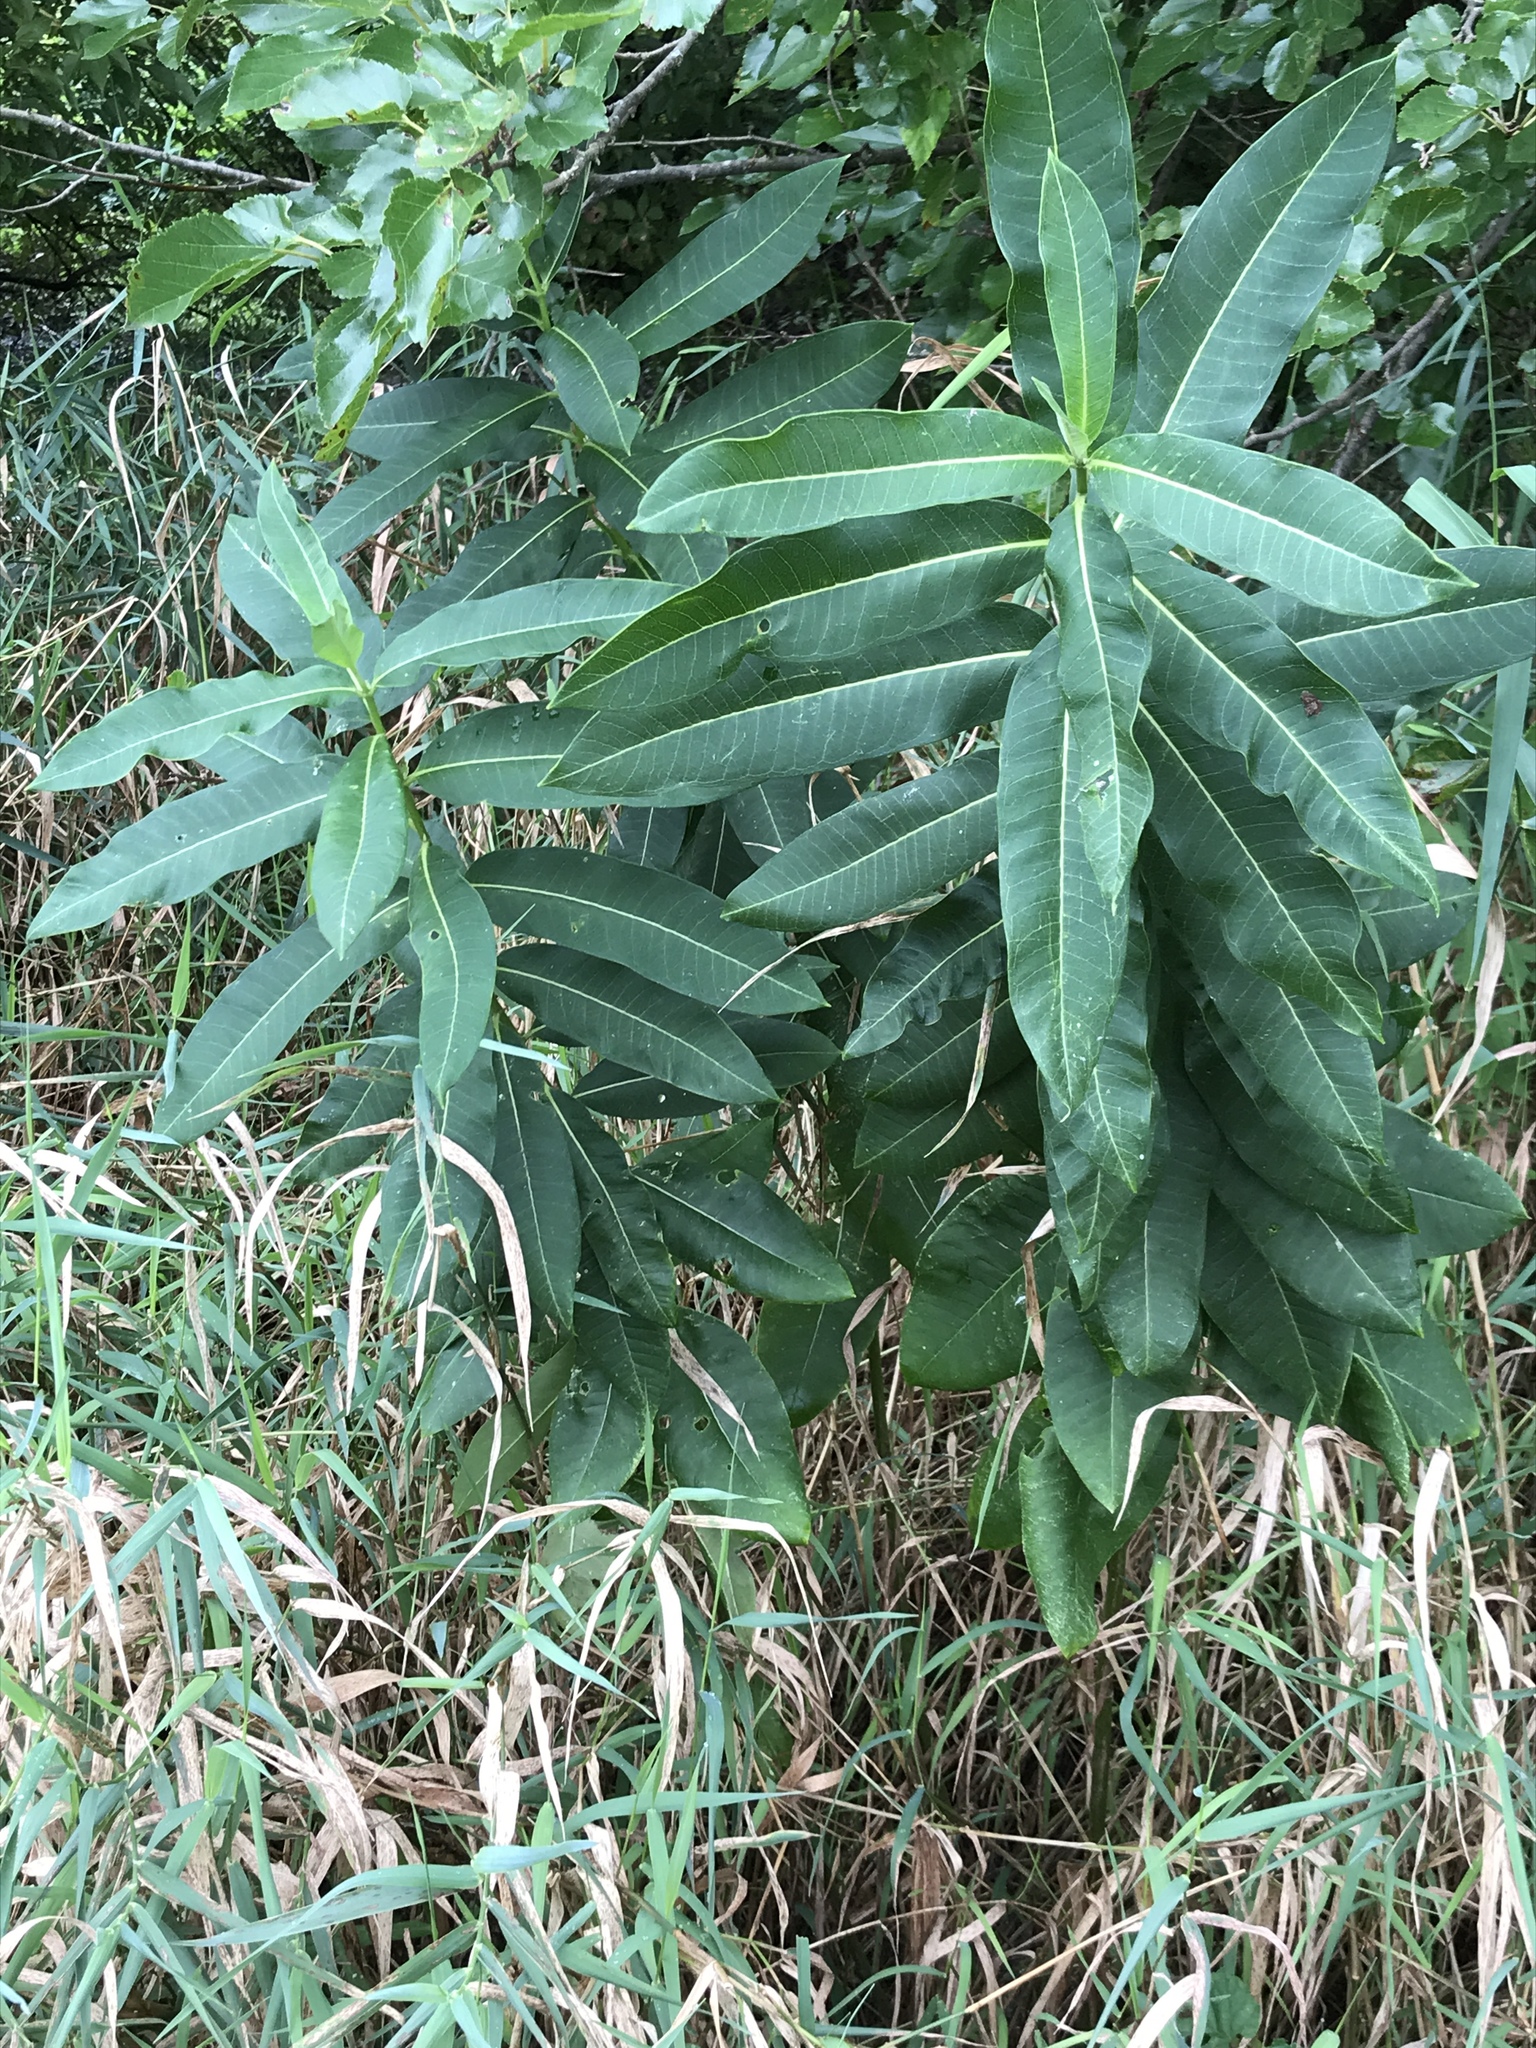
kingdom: Plantae
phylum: Tracheophyta
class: Magnoliopsida
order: Gentianales
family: Apocynaceae
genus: Asclepias
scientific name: Asclepias syriaca
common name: Common milkweed
